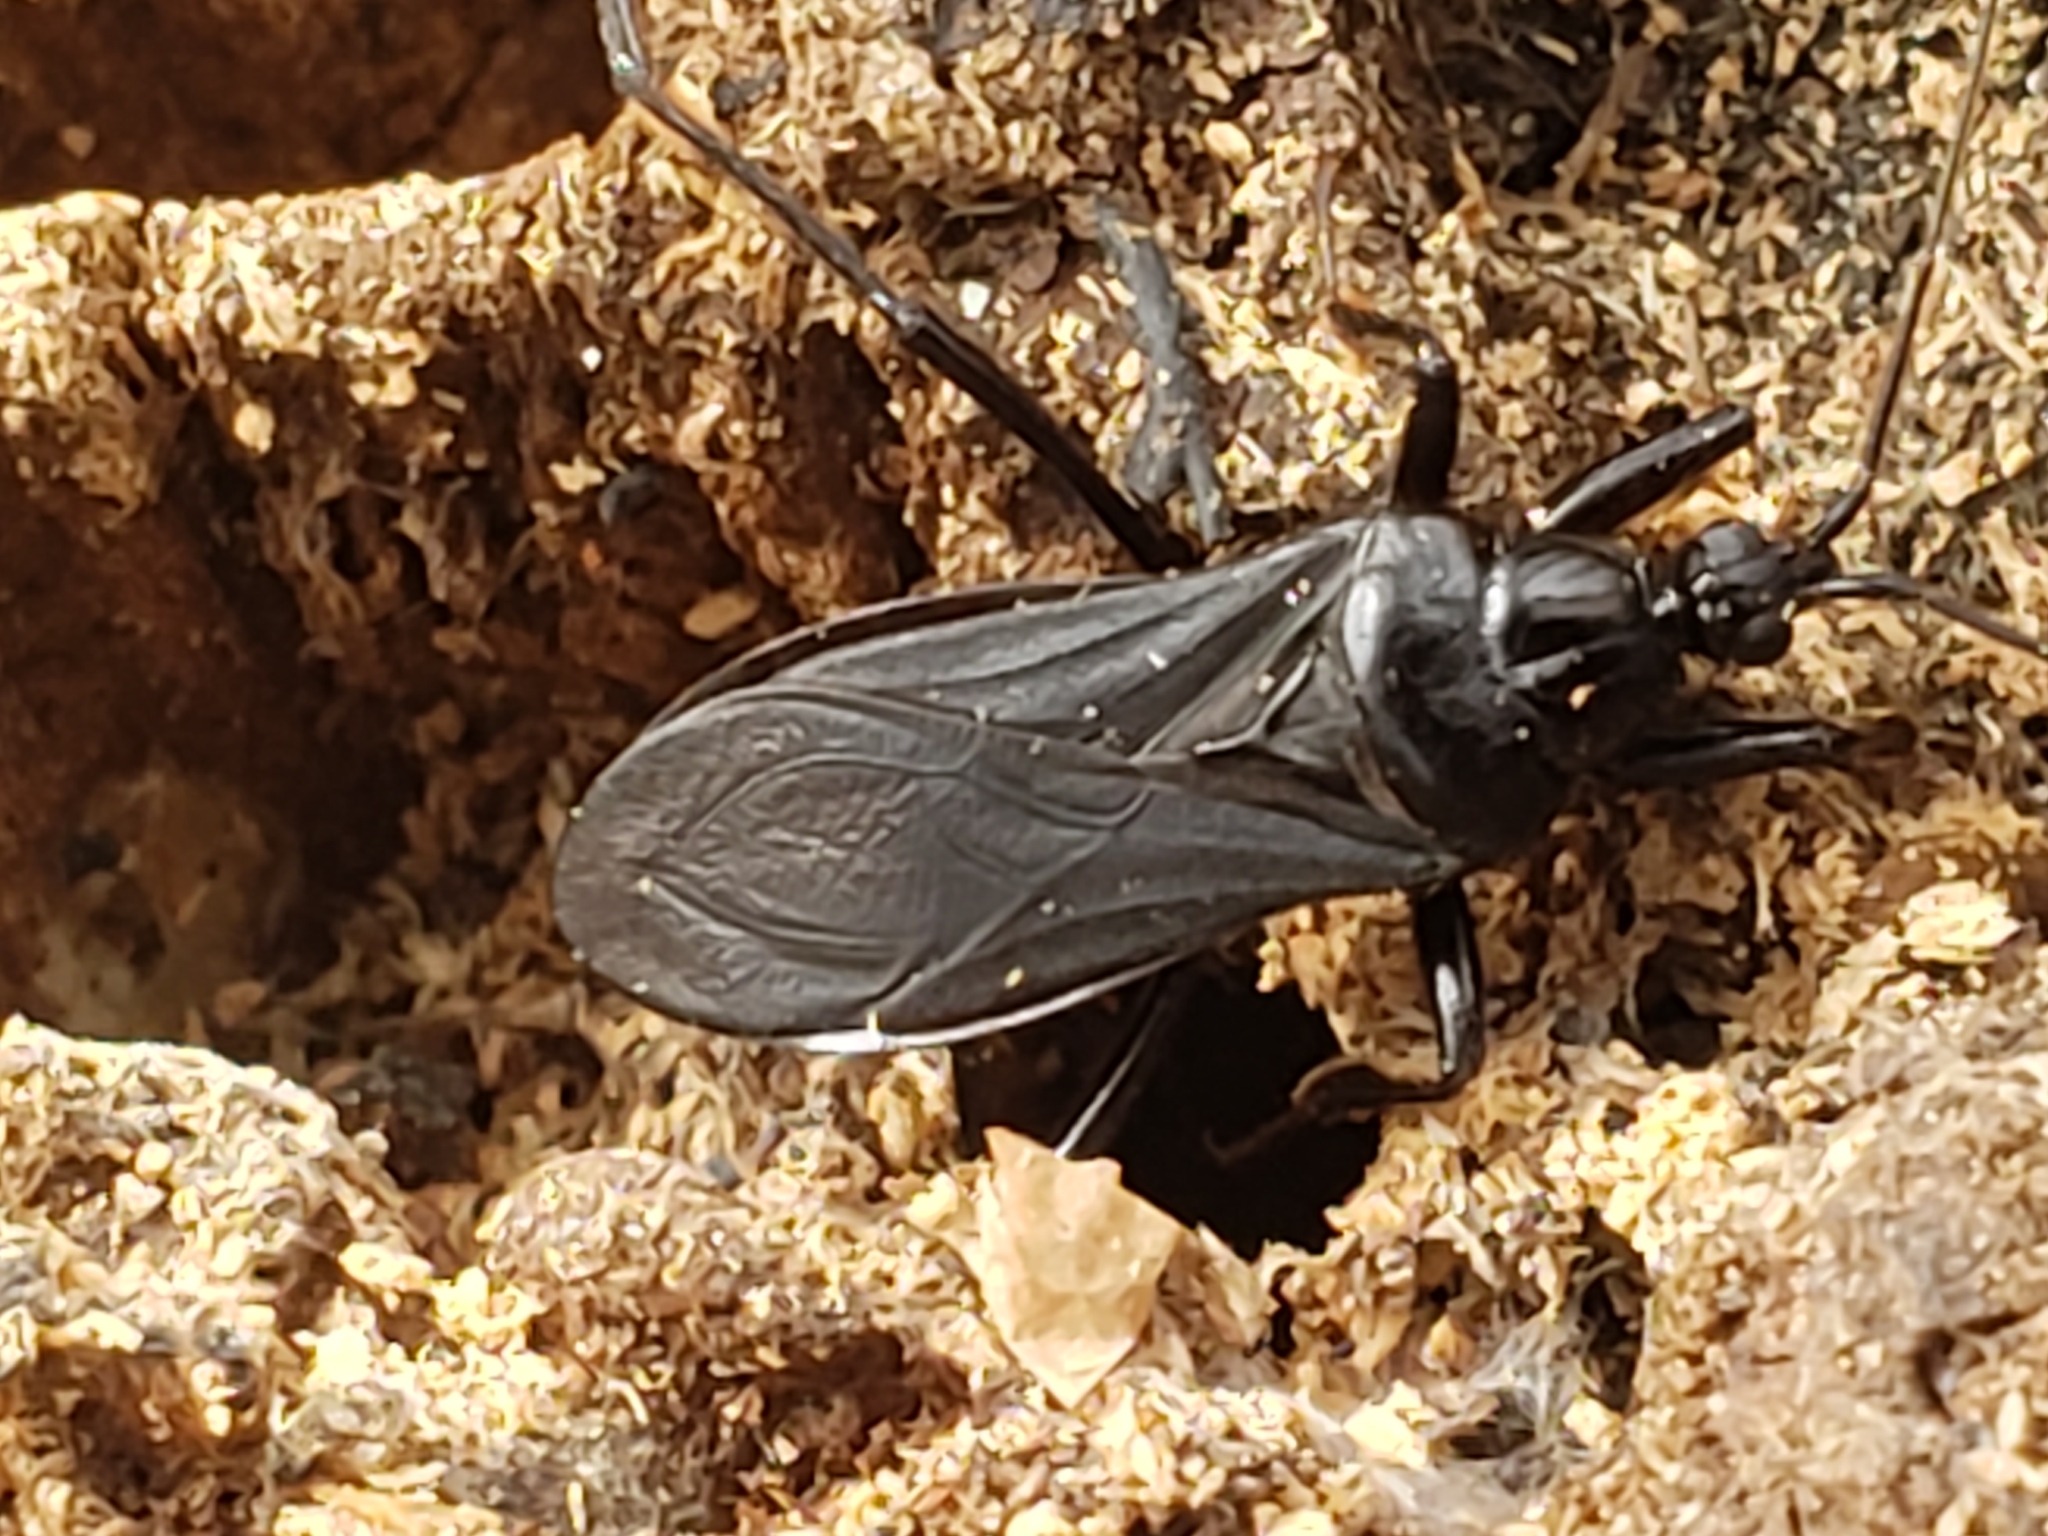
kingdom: Animalia
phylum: Arthropoda
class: Insecta
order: Hemiptera
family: Reduviidae
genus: Melanolestes
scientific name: Melanolestes picipes
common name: Assassin bug
